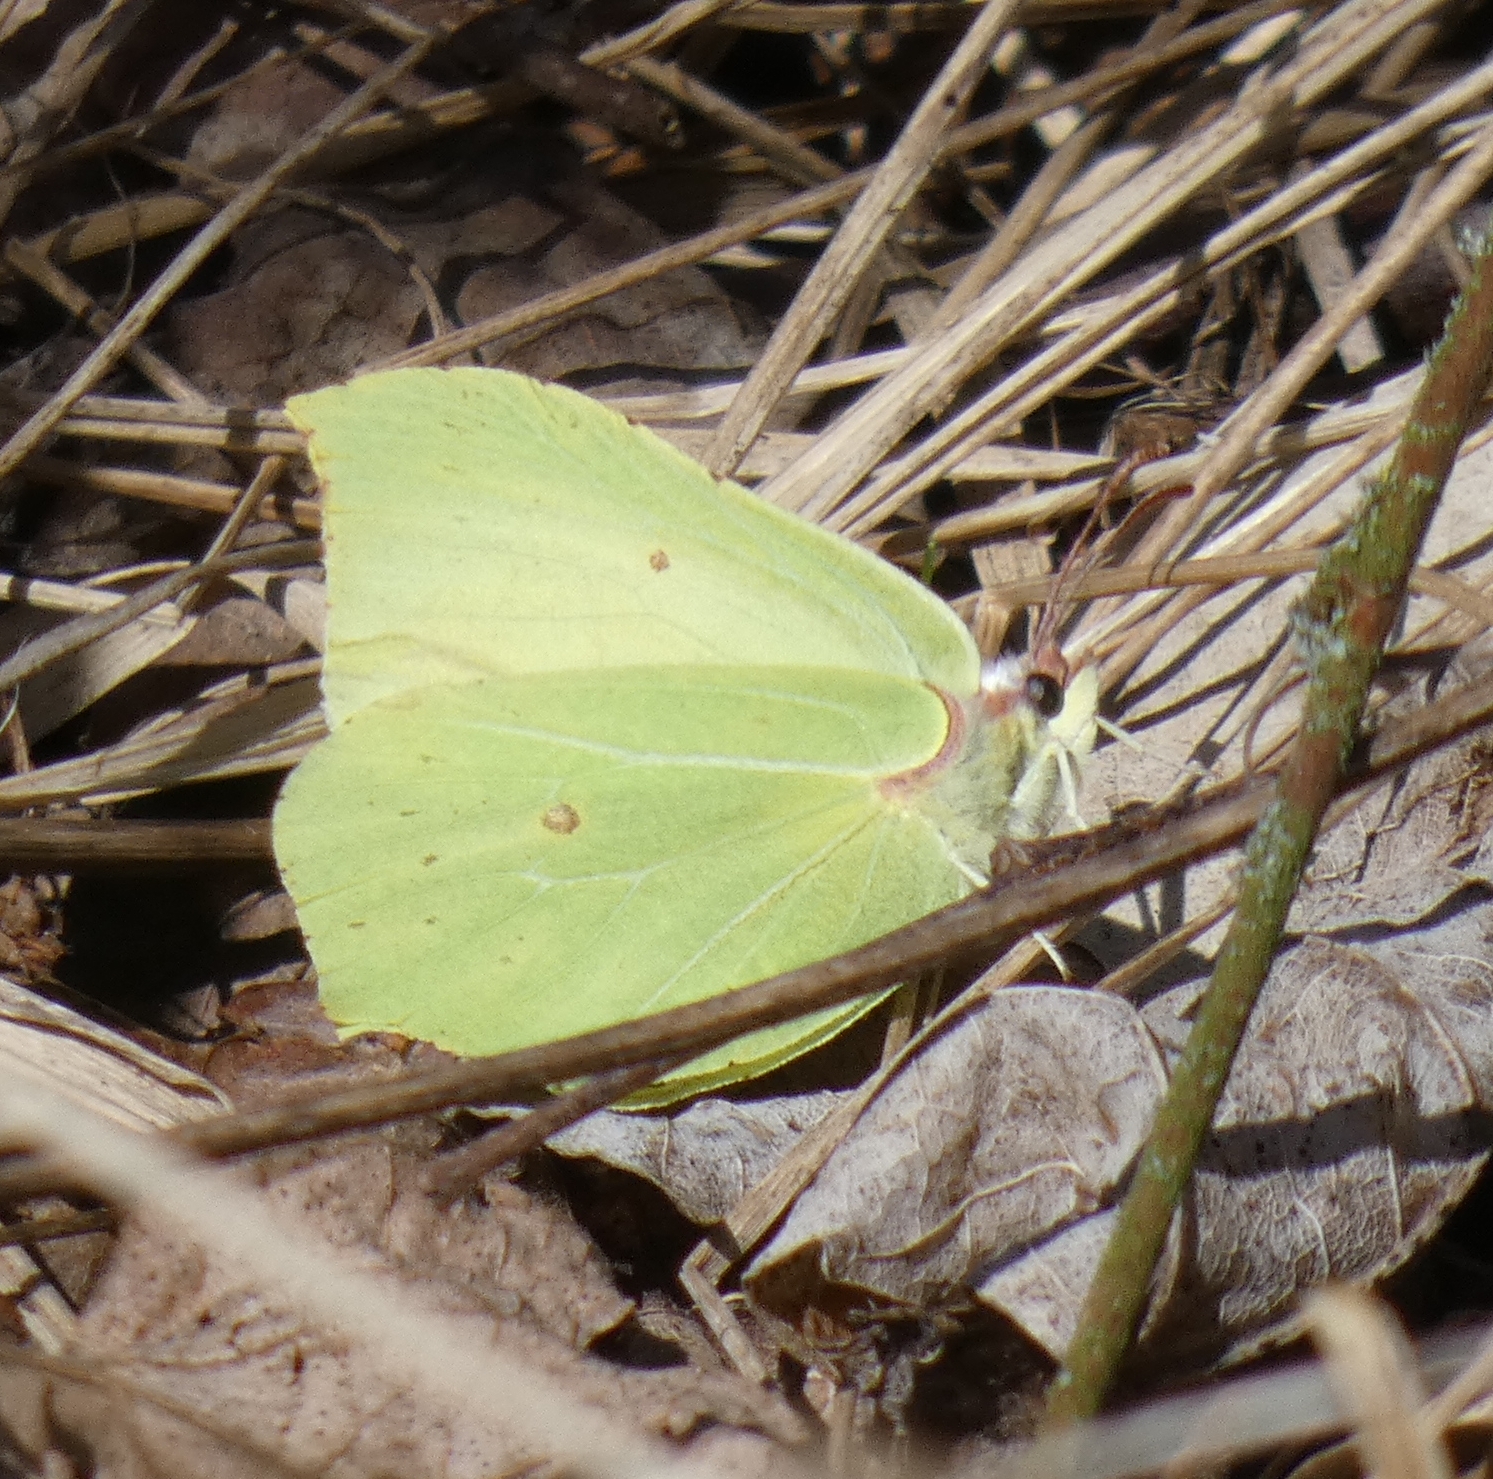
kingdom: Animalia
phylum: Arthropoda
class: Insecta
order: Lepidoptera
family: Pieridae
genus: Gonepteryx
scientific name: Gonepteryx rhamni
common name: Brimstone
